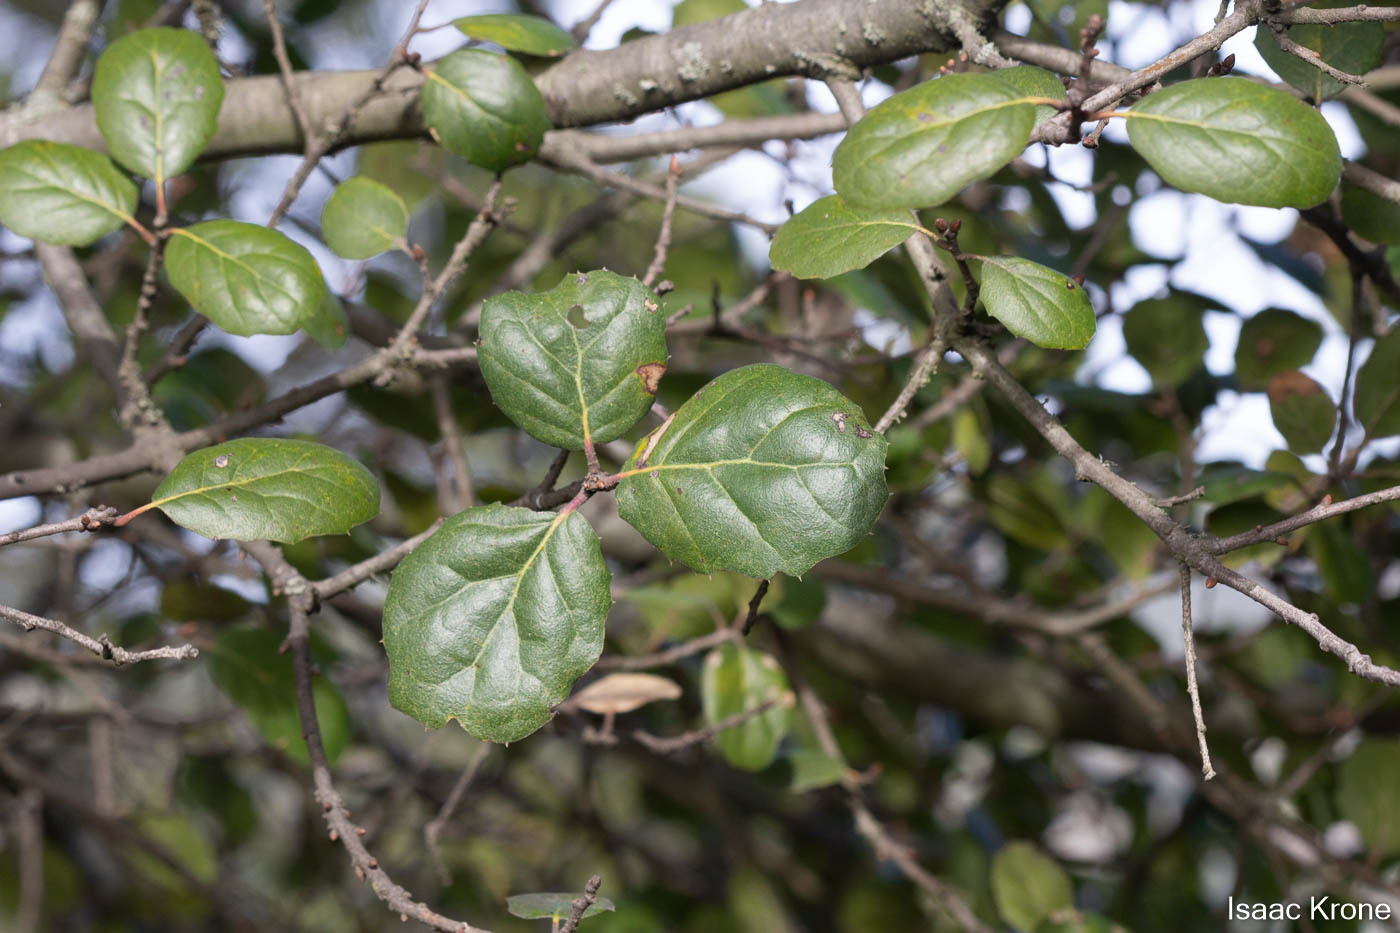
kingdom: Plantae
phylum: Tracheophyta
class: Magnoliopsida
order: Fagales
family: Fagaceae
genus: Quercus
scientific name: Quercus agrifolia
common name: California live oak
